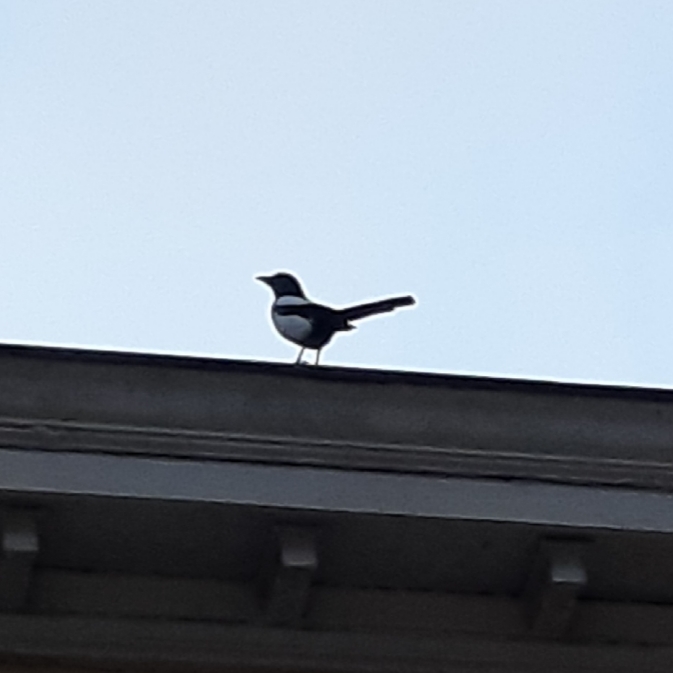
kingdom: Animalia
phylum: Chordata
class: Aves
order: Passeriformes
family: Corvidae
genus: Pica
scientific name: Pica pica
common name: Eurasian magpie
